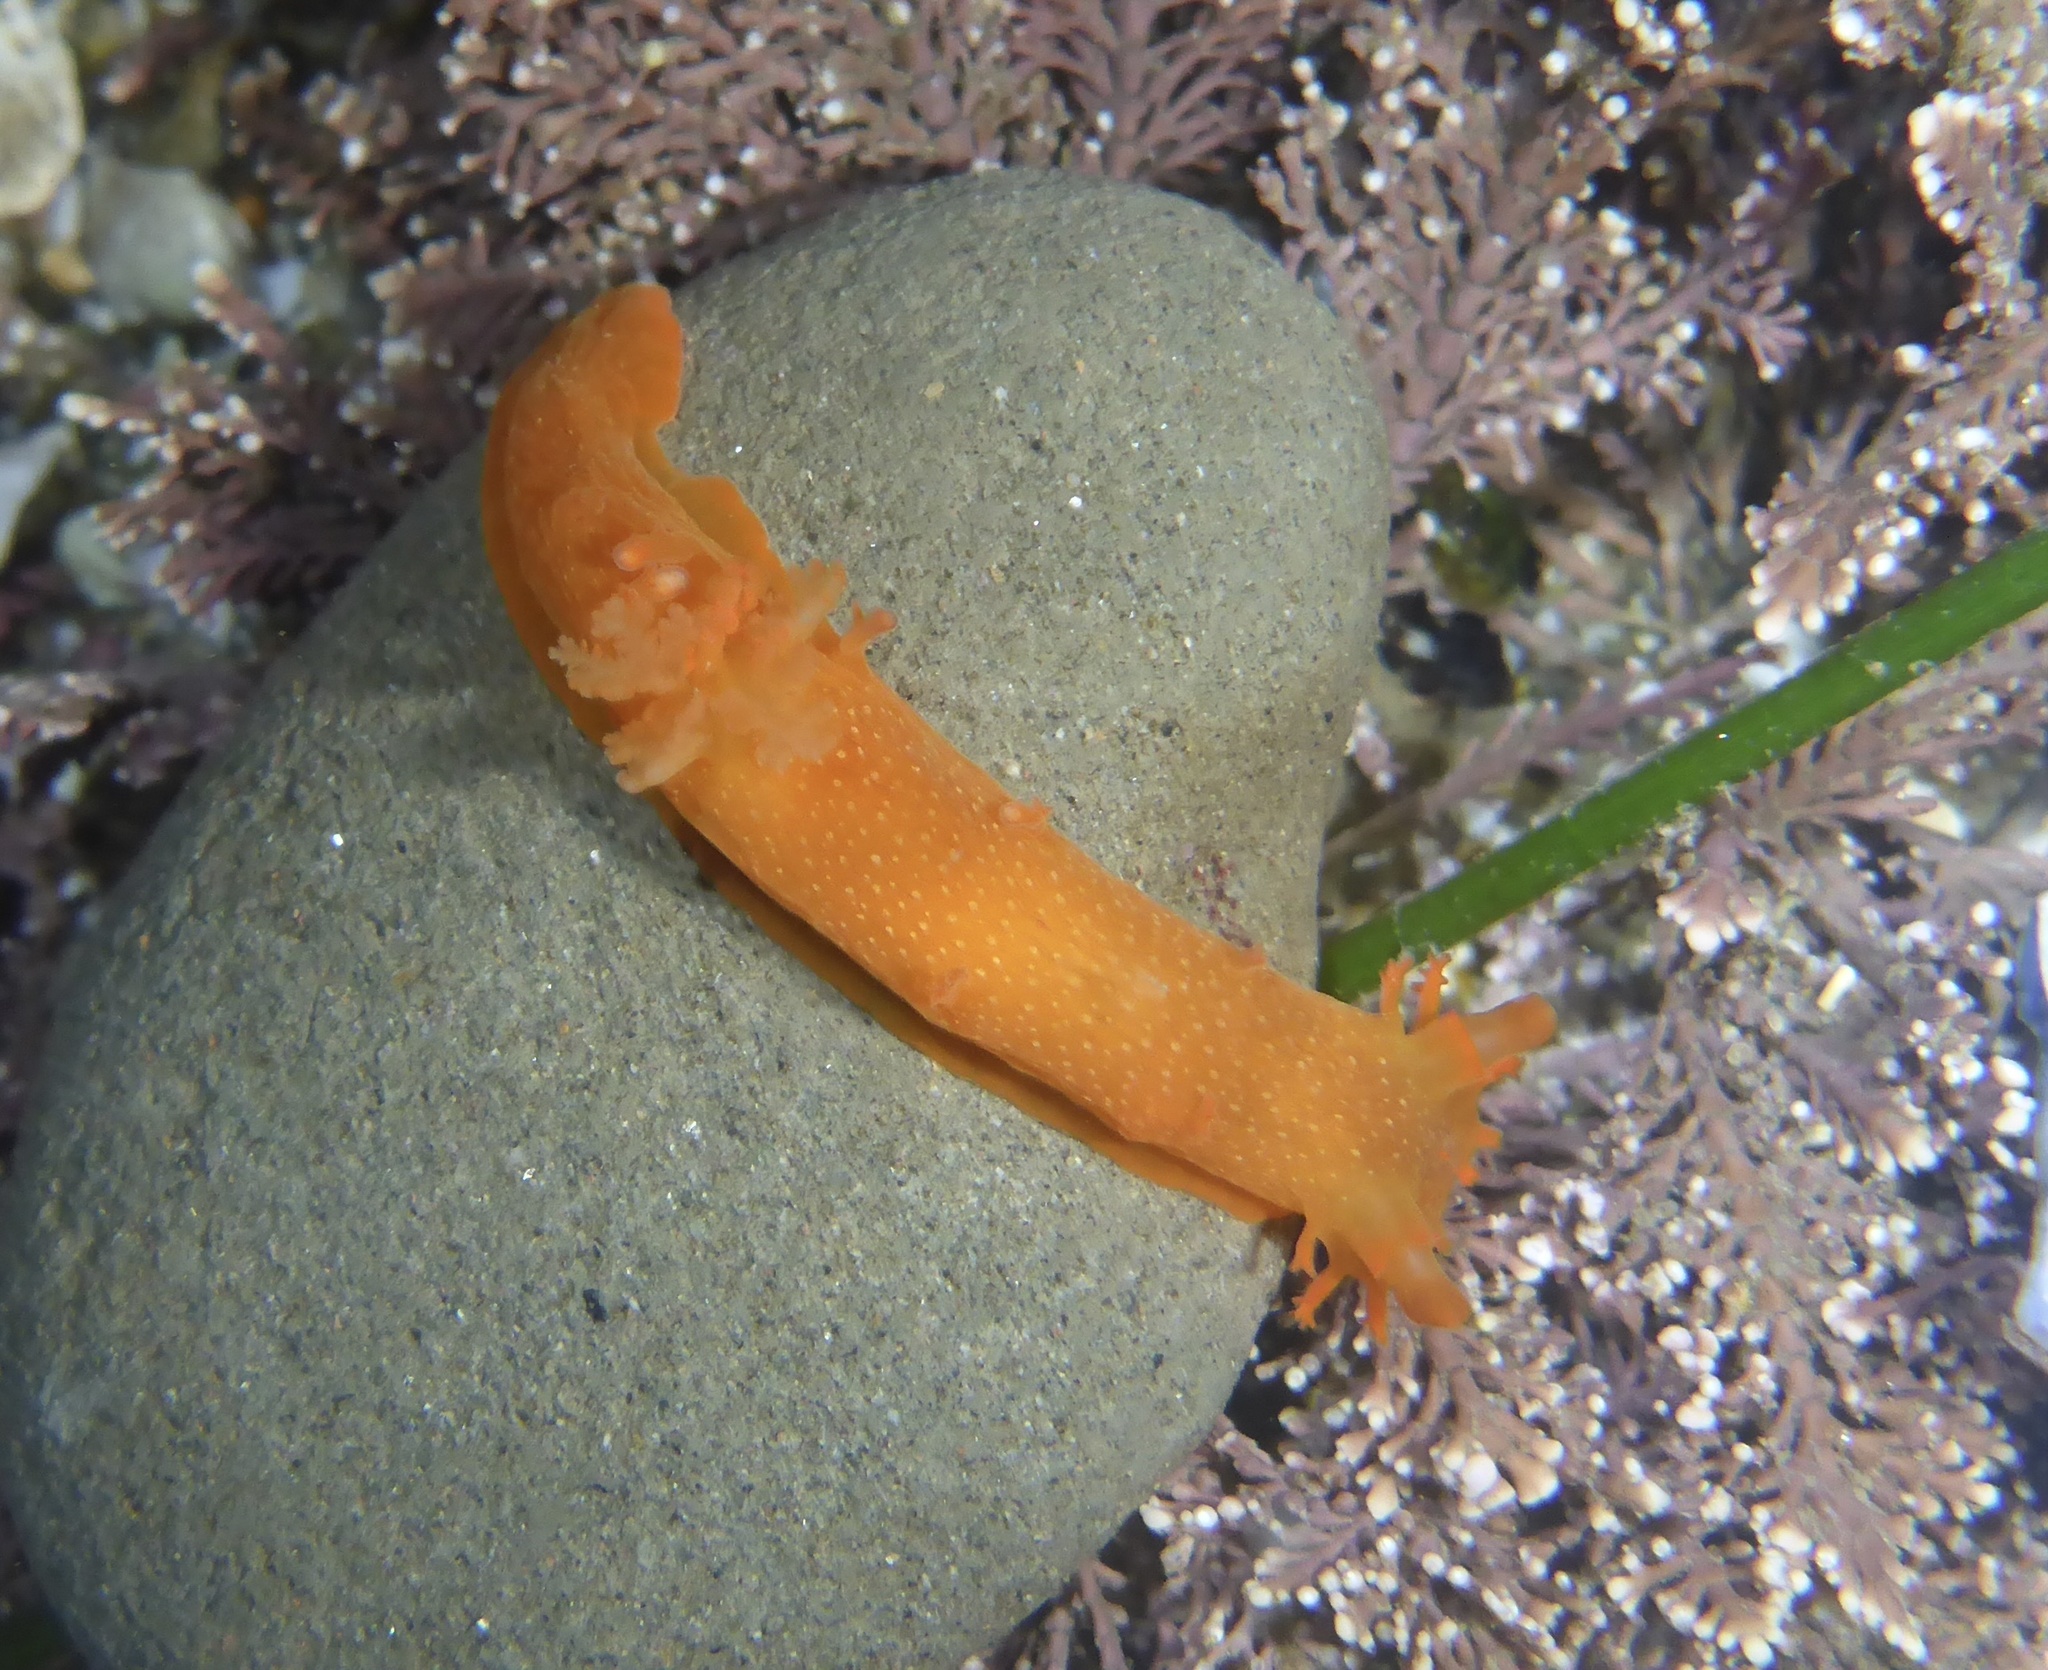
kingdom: Animalia
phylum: Mollusca
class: Gastropoda
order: Nudibranchia
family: Polyceridae
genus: Triopha
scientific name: Triopha maculata
